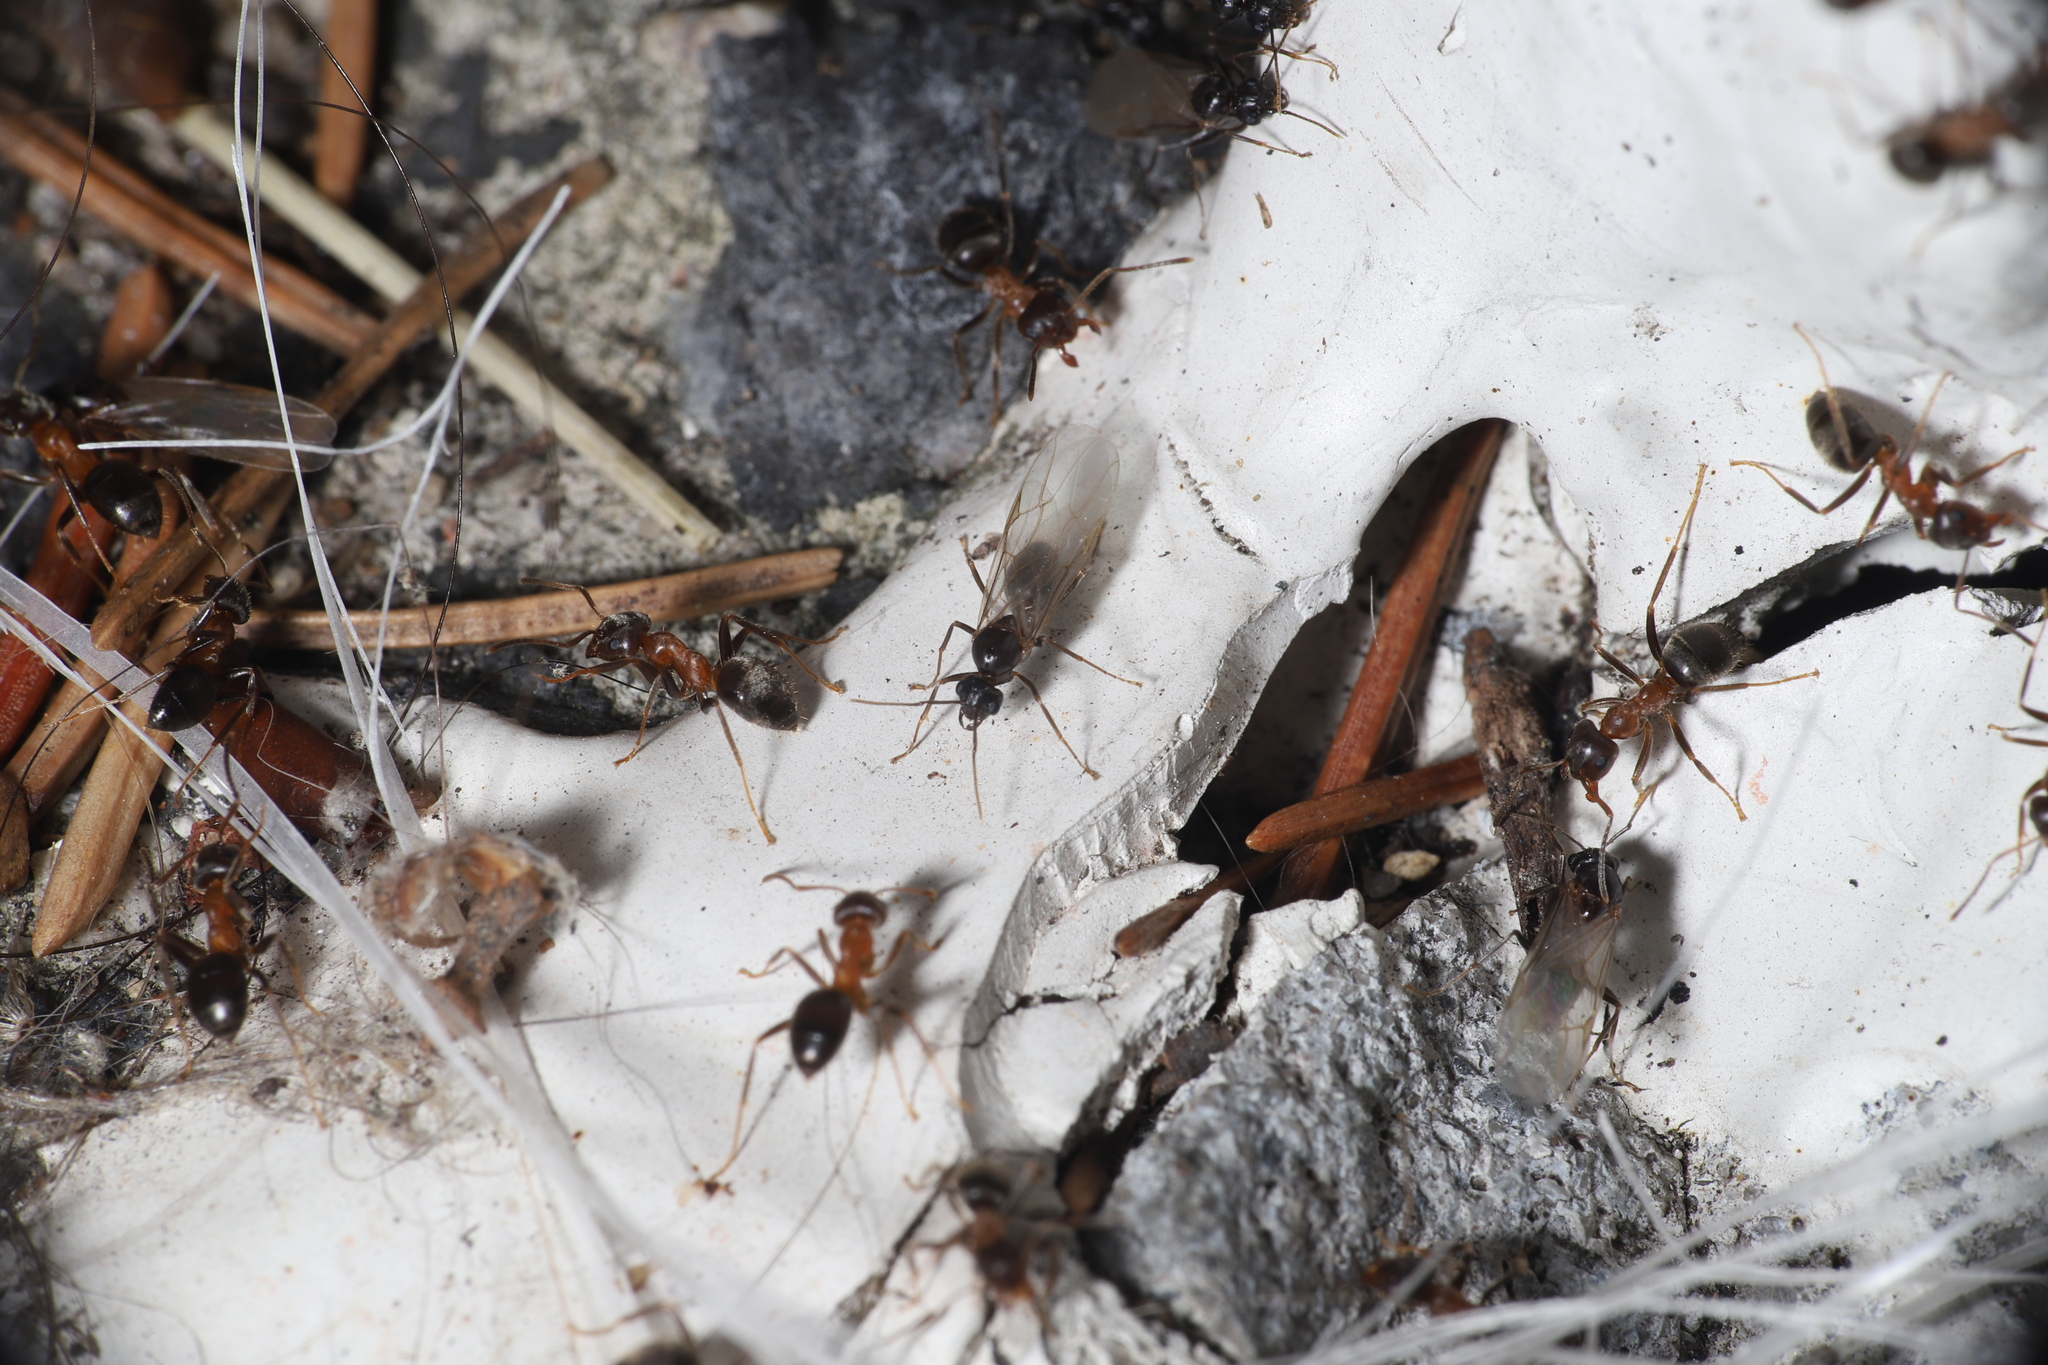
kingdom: Animalia
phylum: Arthropoda
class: Insecta
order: Hymenoptera
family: Formicidae
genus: Lasius
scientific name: Lasius emarginatus
